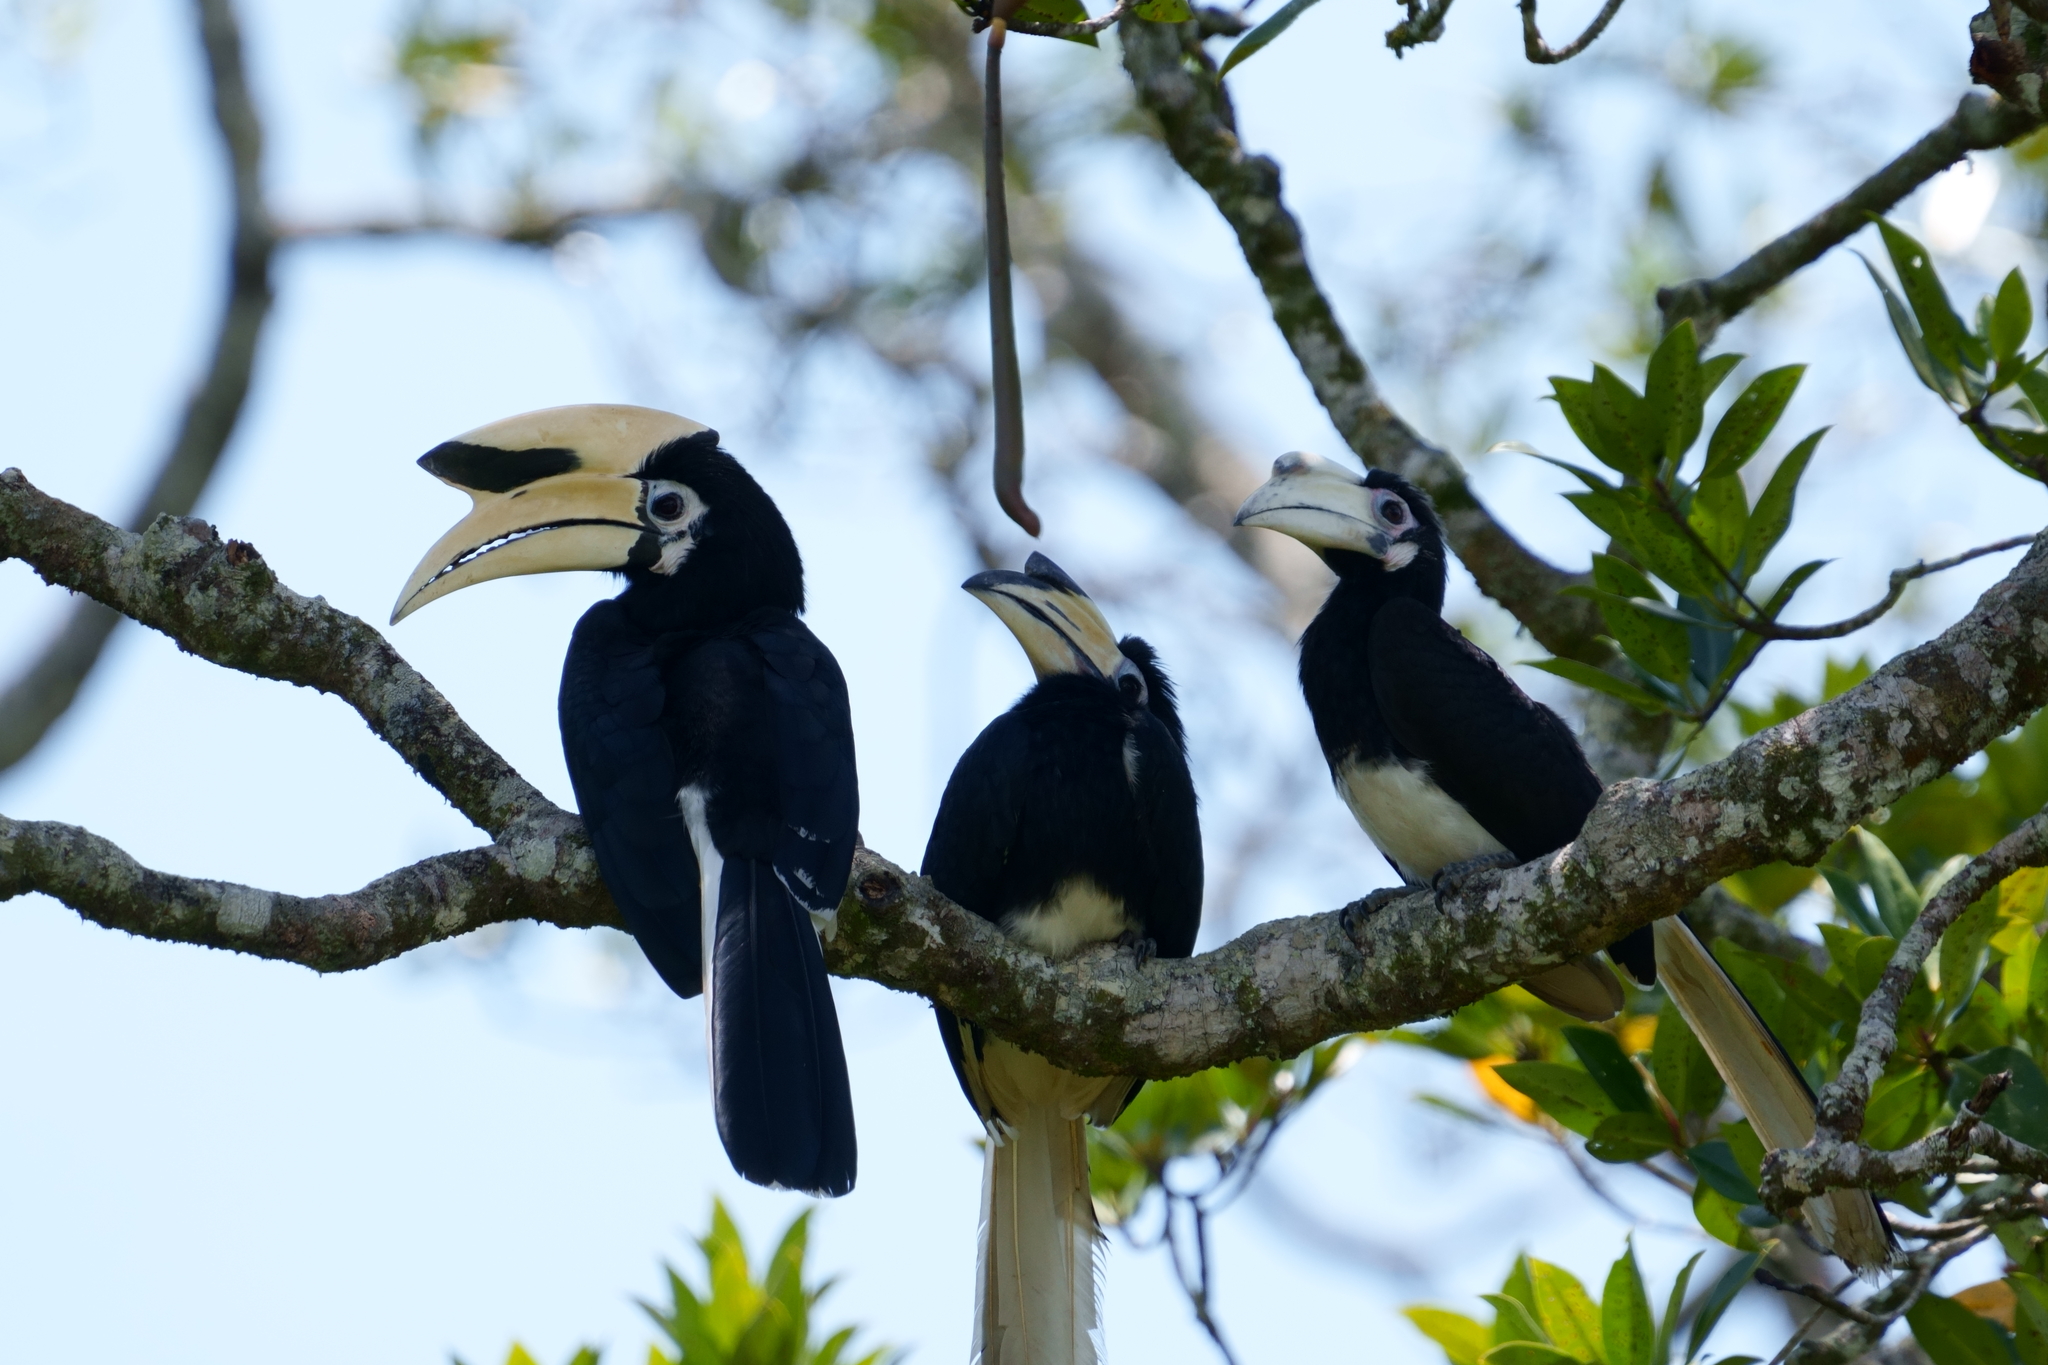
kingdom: Animalia
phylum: Chordata
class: Aves
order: Bucerotiformes
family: Bucerotidae
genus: Anthracoceros
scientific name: Anthracoceros albirostris
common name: Oriental pied-hornbill
